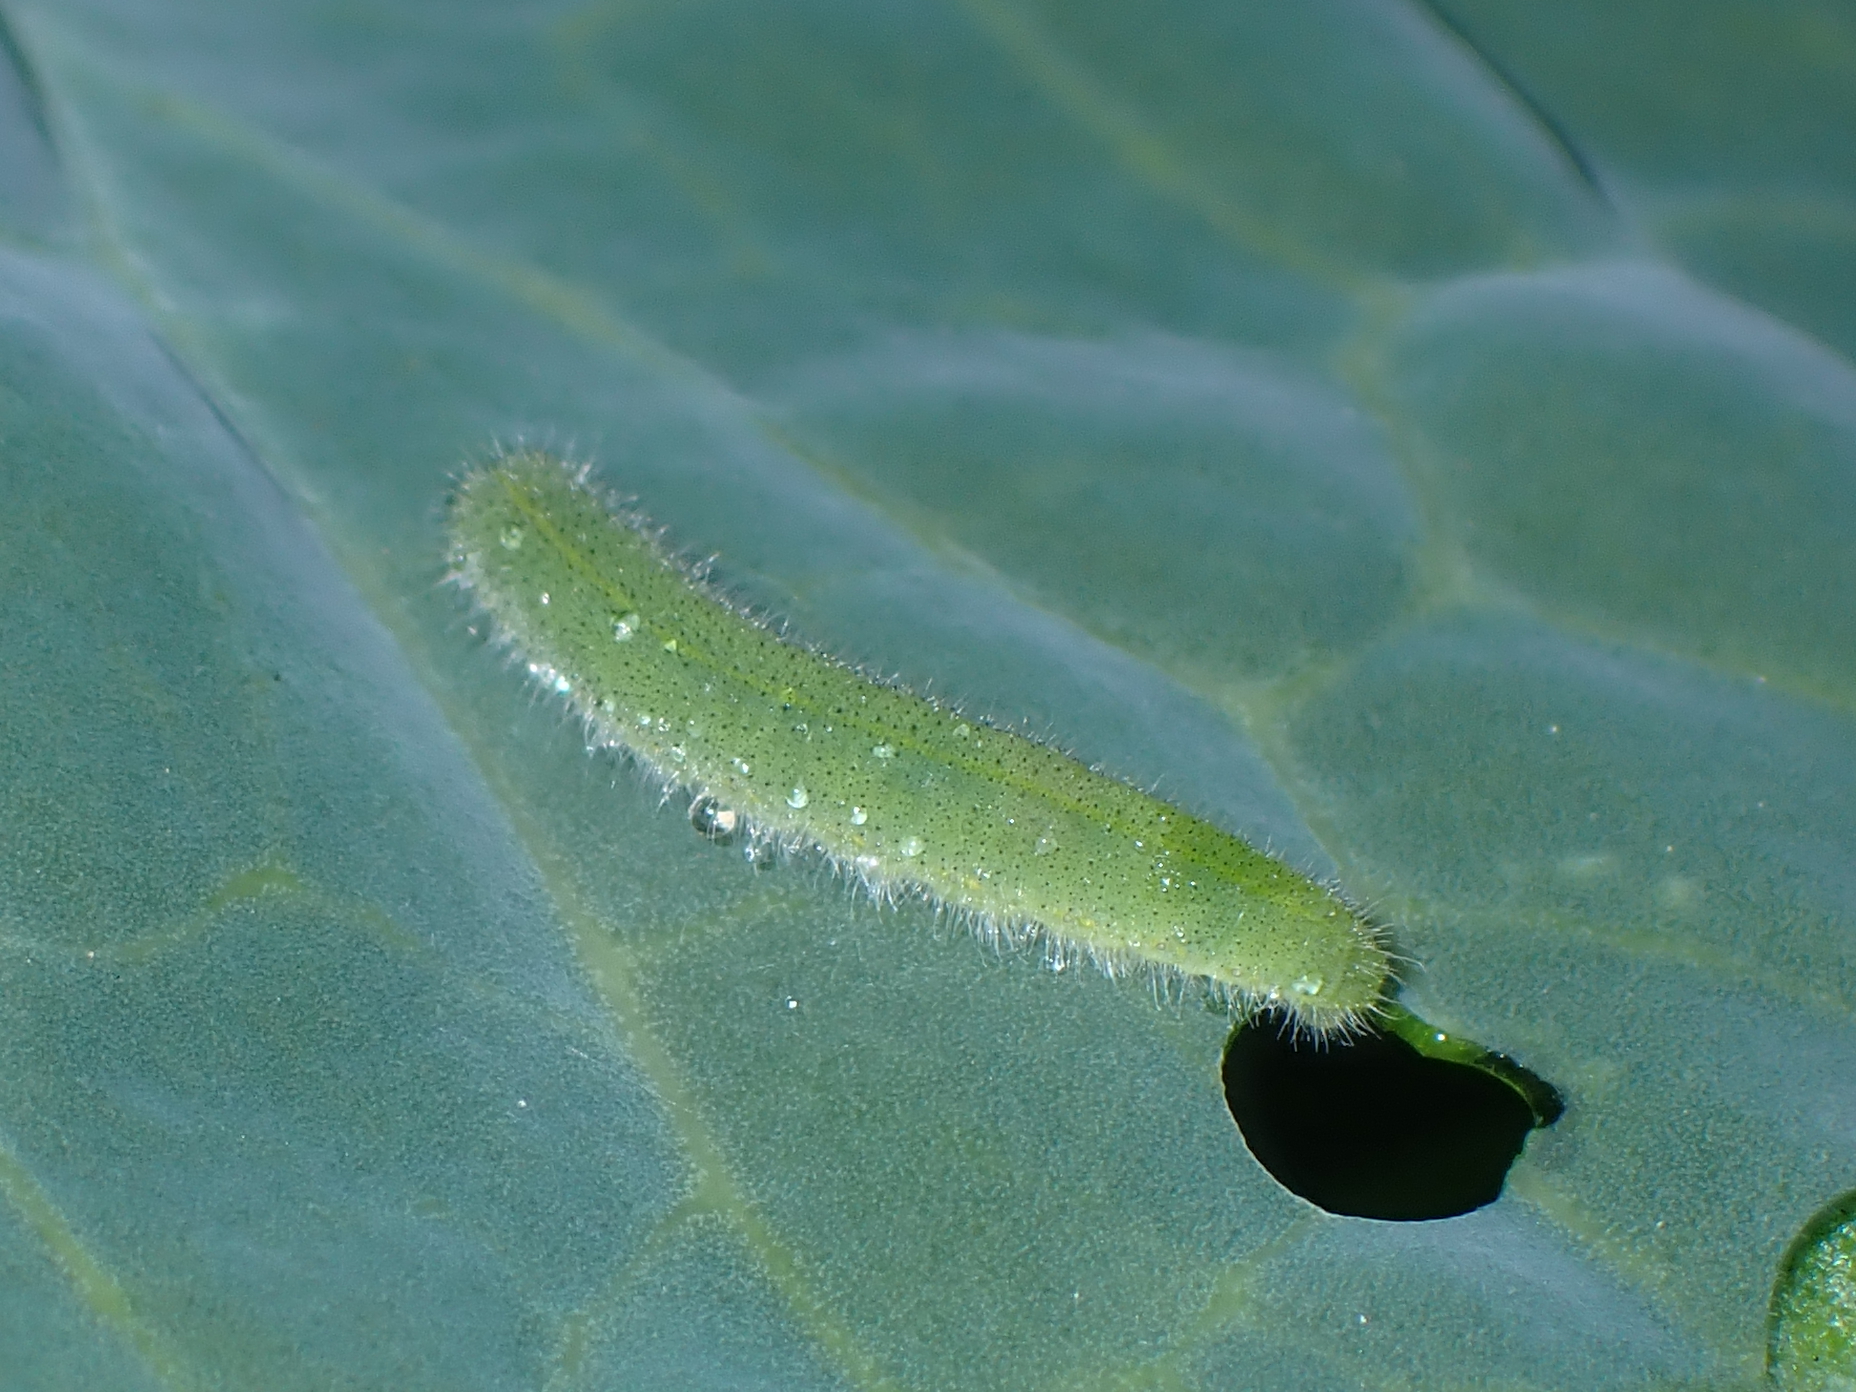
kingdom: Animalia
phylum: Arthropoda
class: Insecta
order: Lepidoptera
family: Pieridae
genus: Pieris
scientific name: Pieris rapae
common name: Small white
